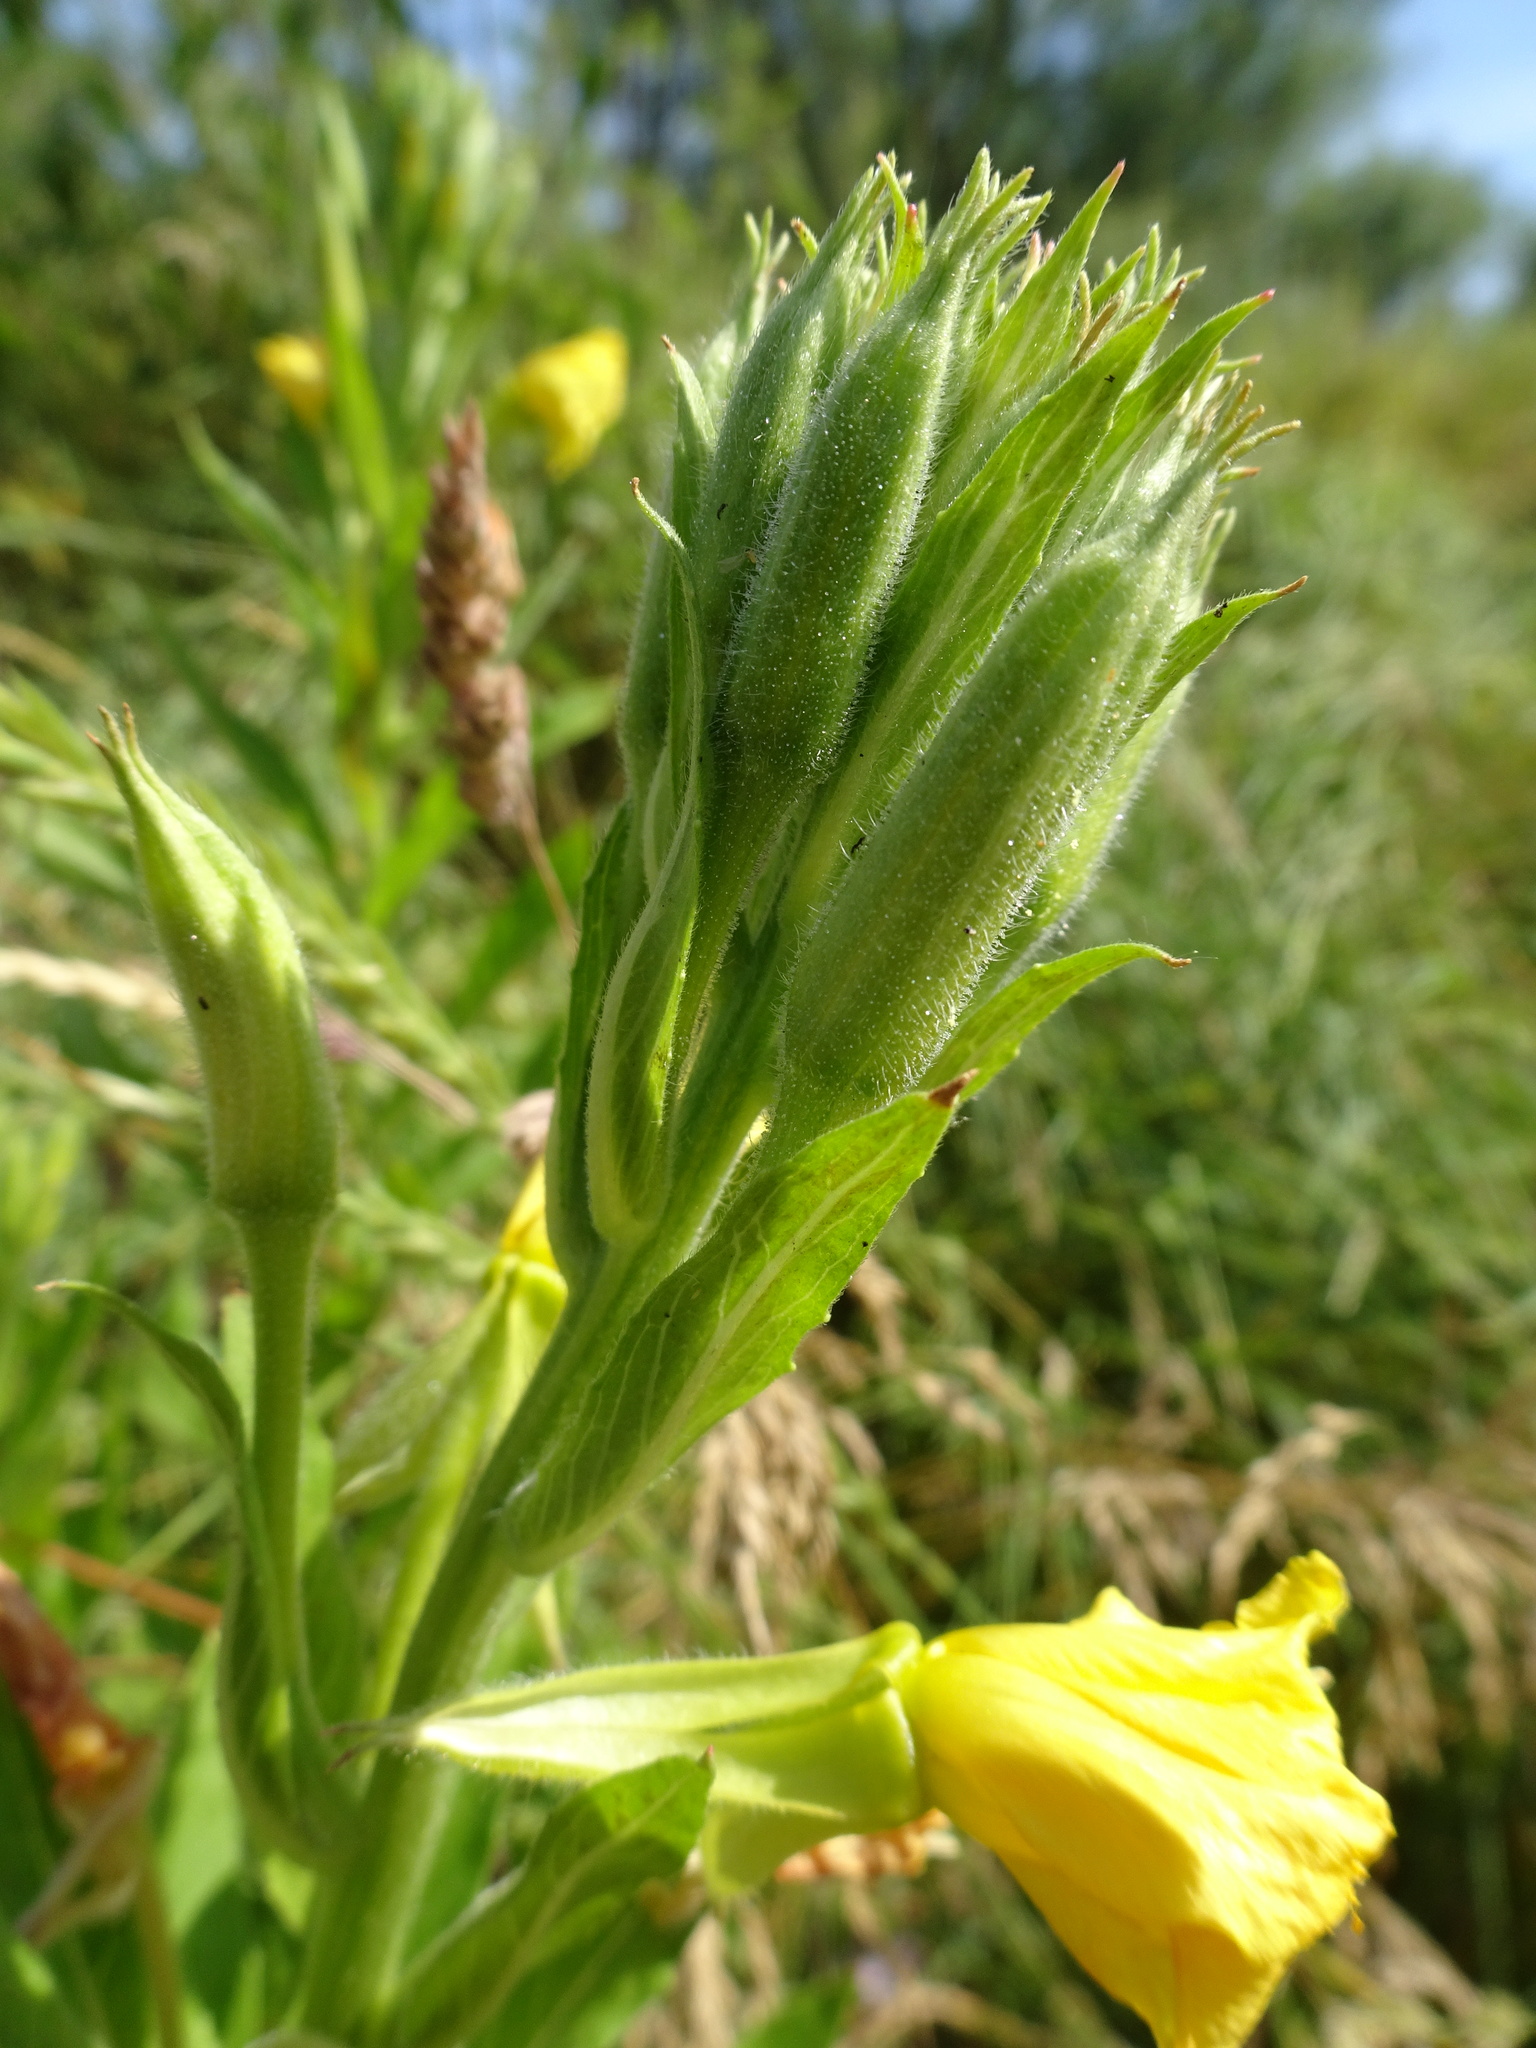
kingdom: Plantae
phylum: Tracheophyta
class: Magnoliopsida
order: Myrtales
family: Onagraceae
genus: Oenothera
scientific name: Oenothera biennis
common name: Common evening-primrose
